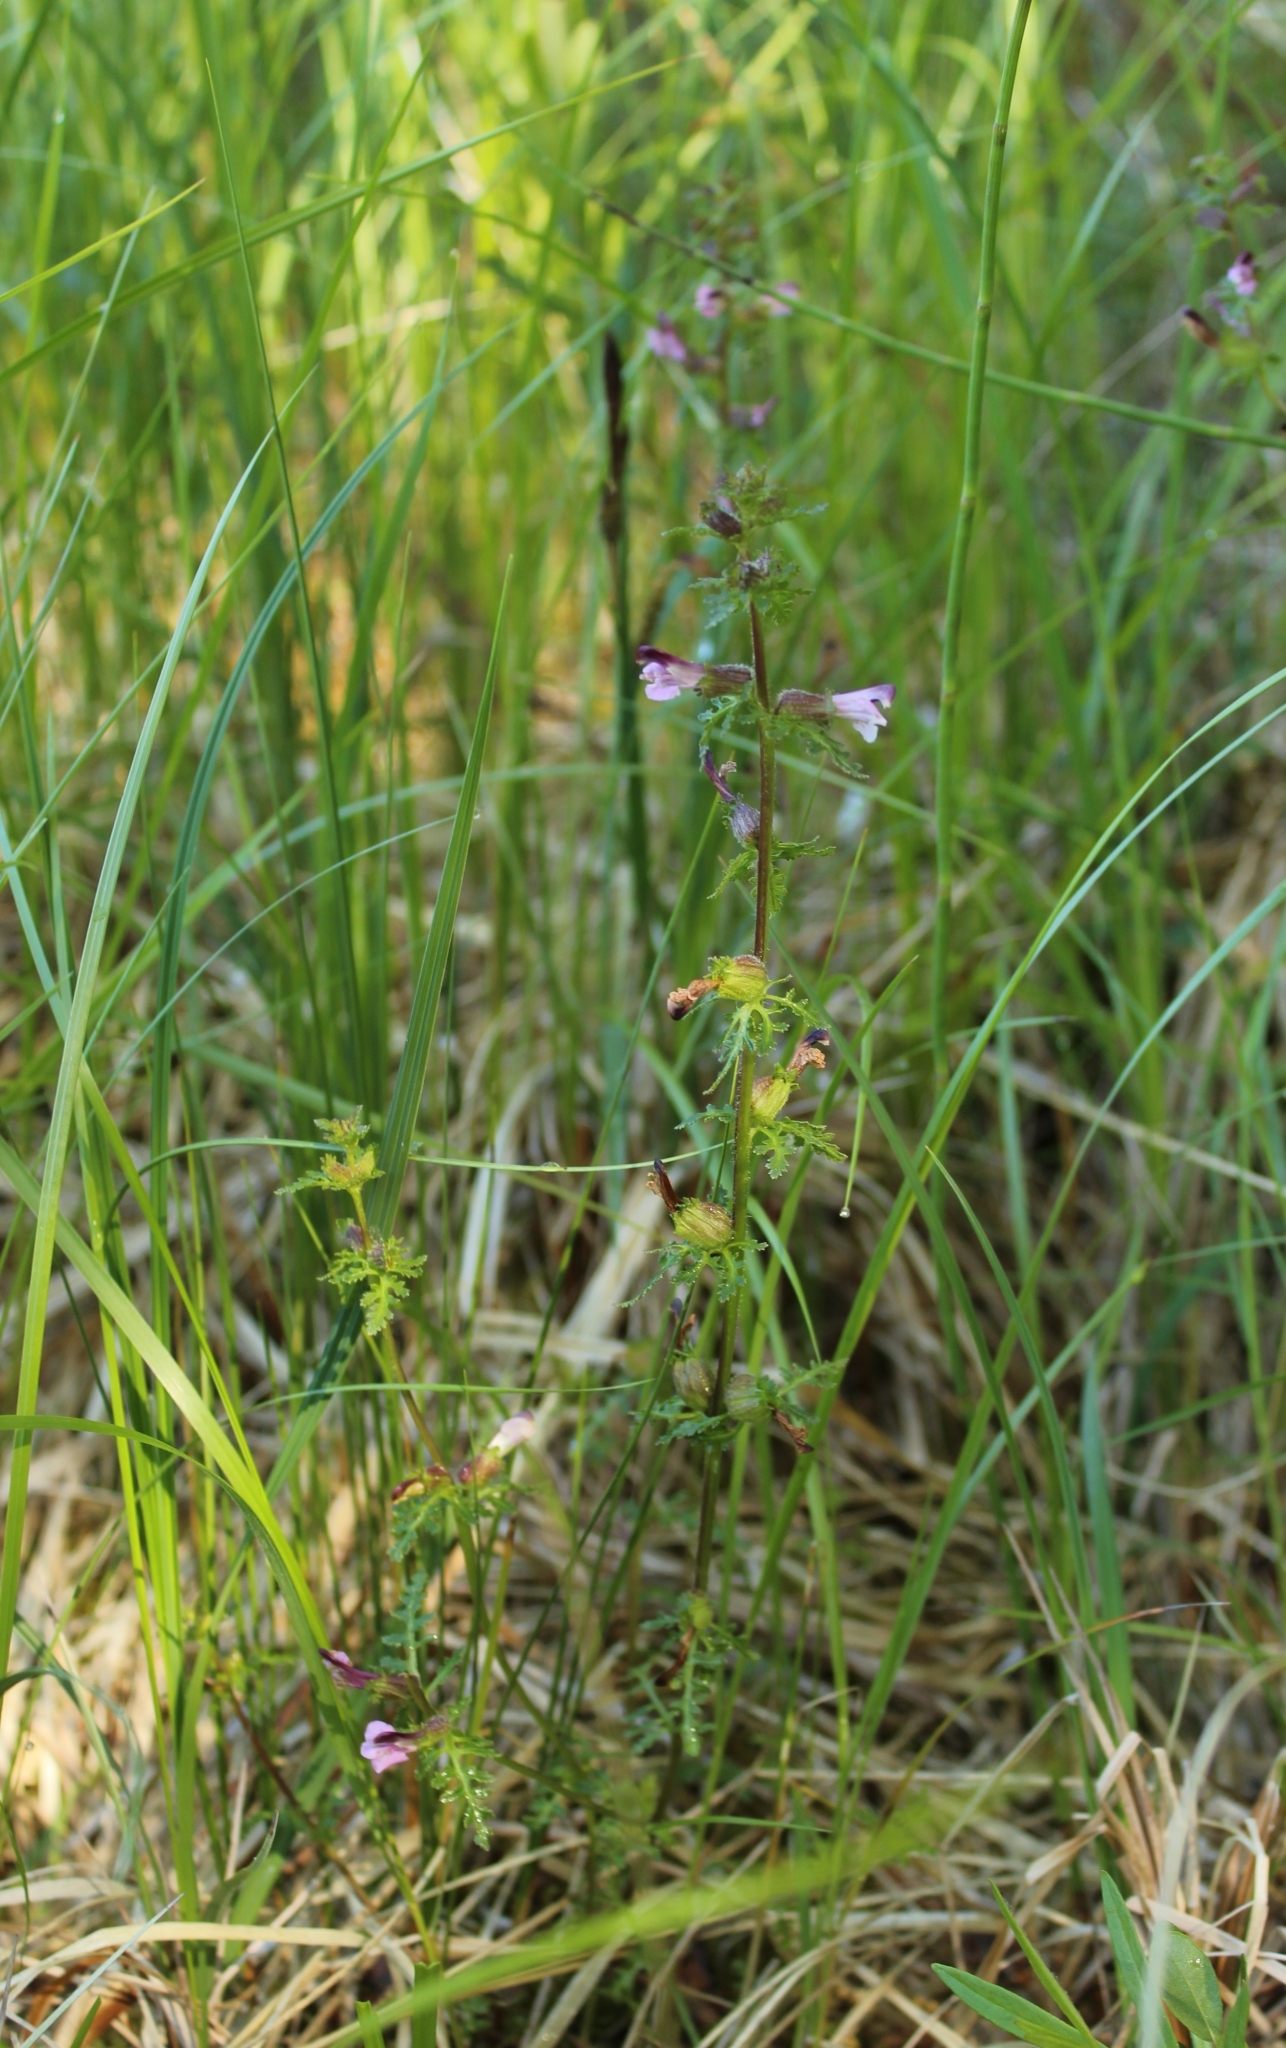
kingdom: Plantae
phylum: Tracheophyta
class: Magnoliopsida
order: Lamiales
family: Orobanchaceae
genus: Pedicularis
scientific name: Pedicularis palustris
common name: Marsh lousewort
